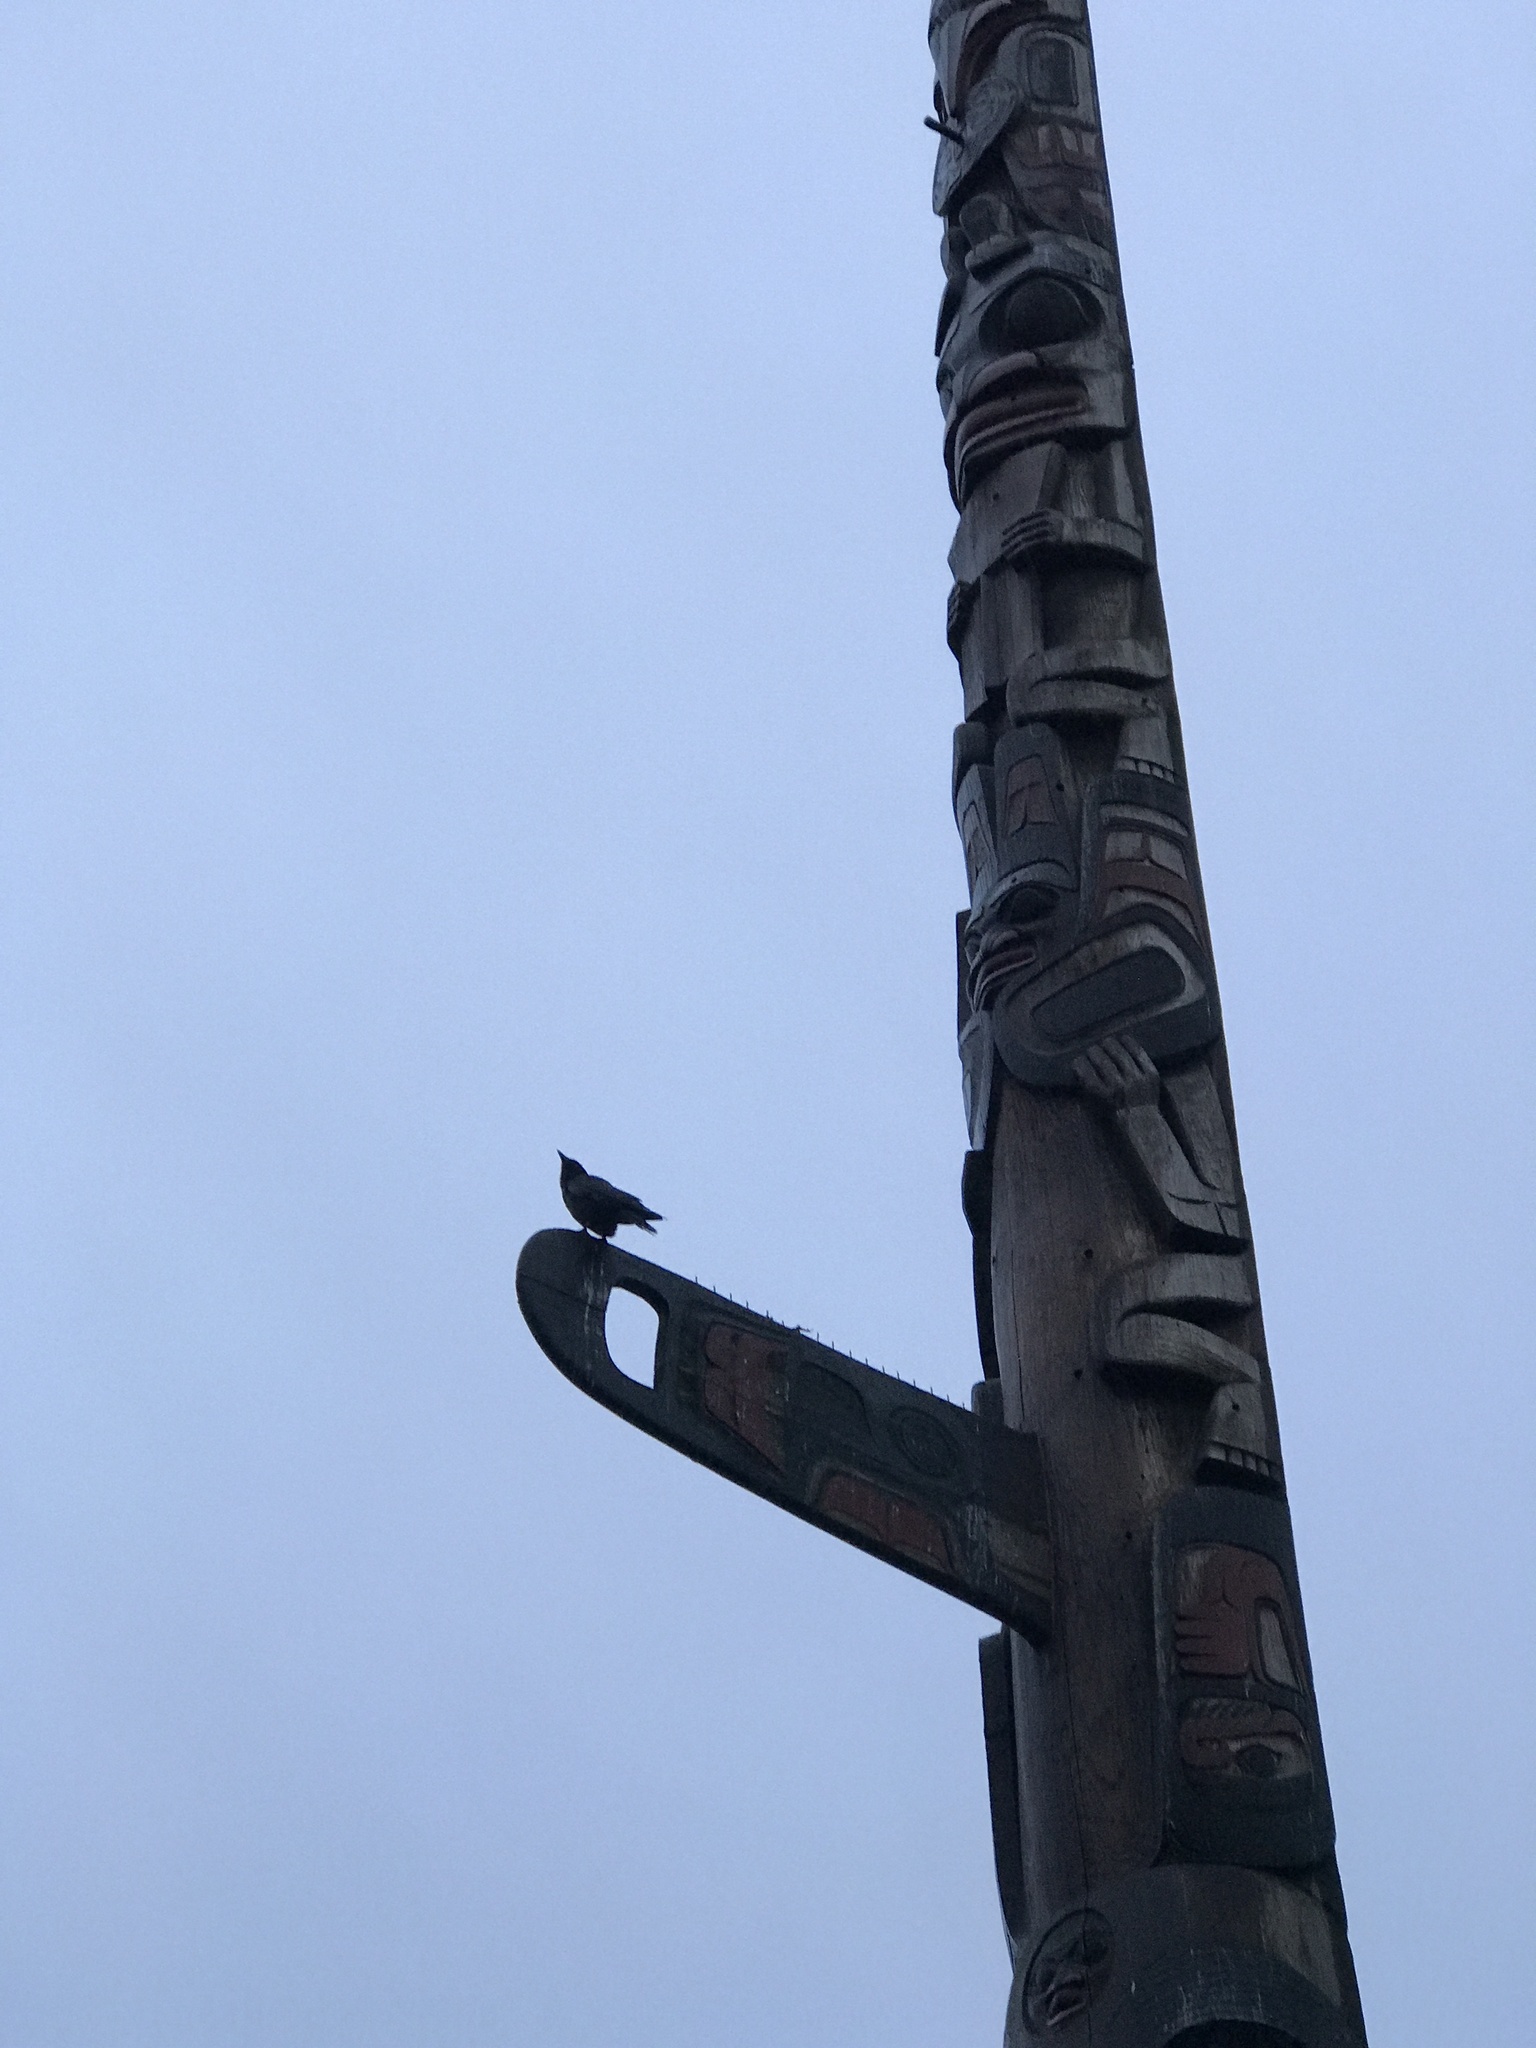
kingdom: Animalia
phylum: Chordata
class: Aves
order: Passeriformes
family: Corvidae
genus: Corvus
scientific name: Corvus brachyrhynchos
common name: American crow
